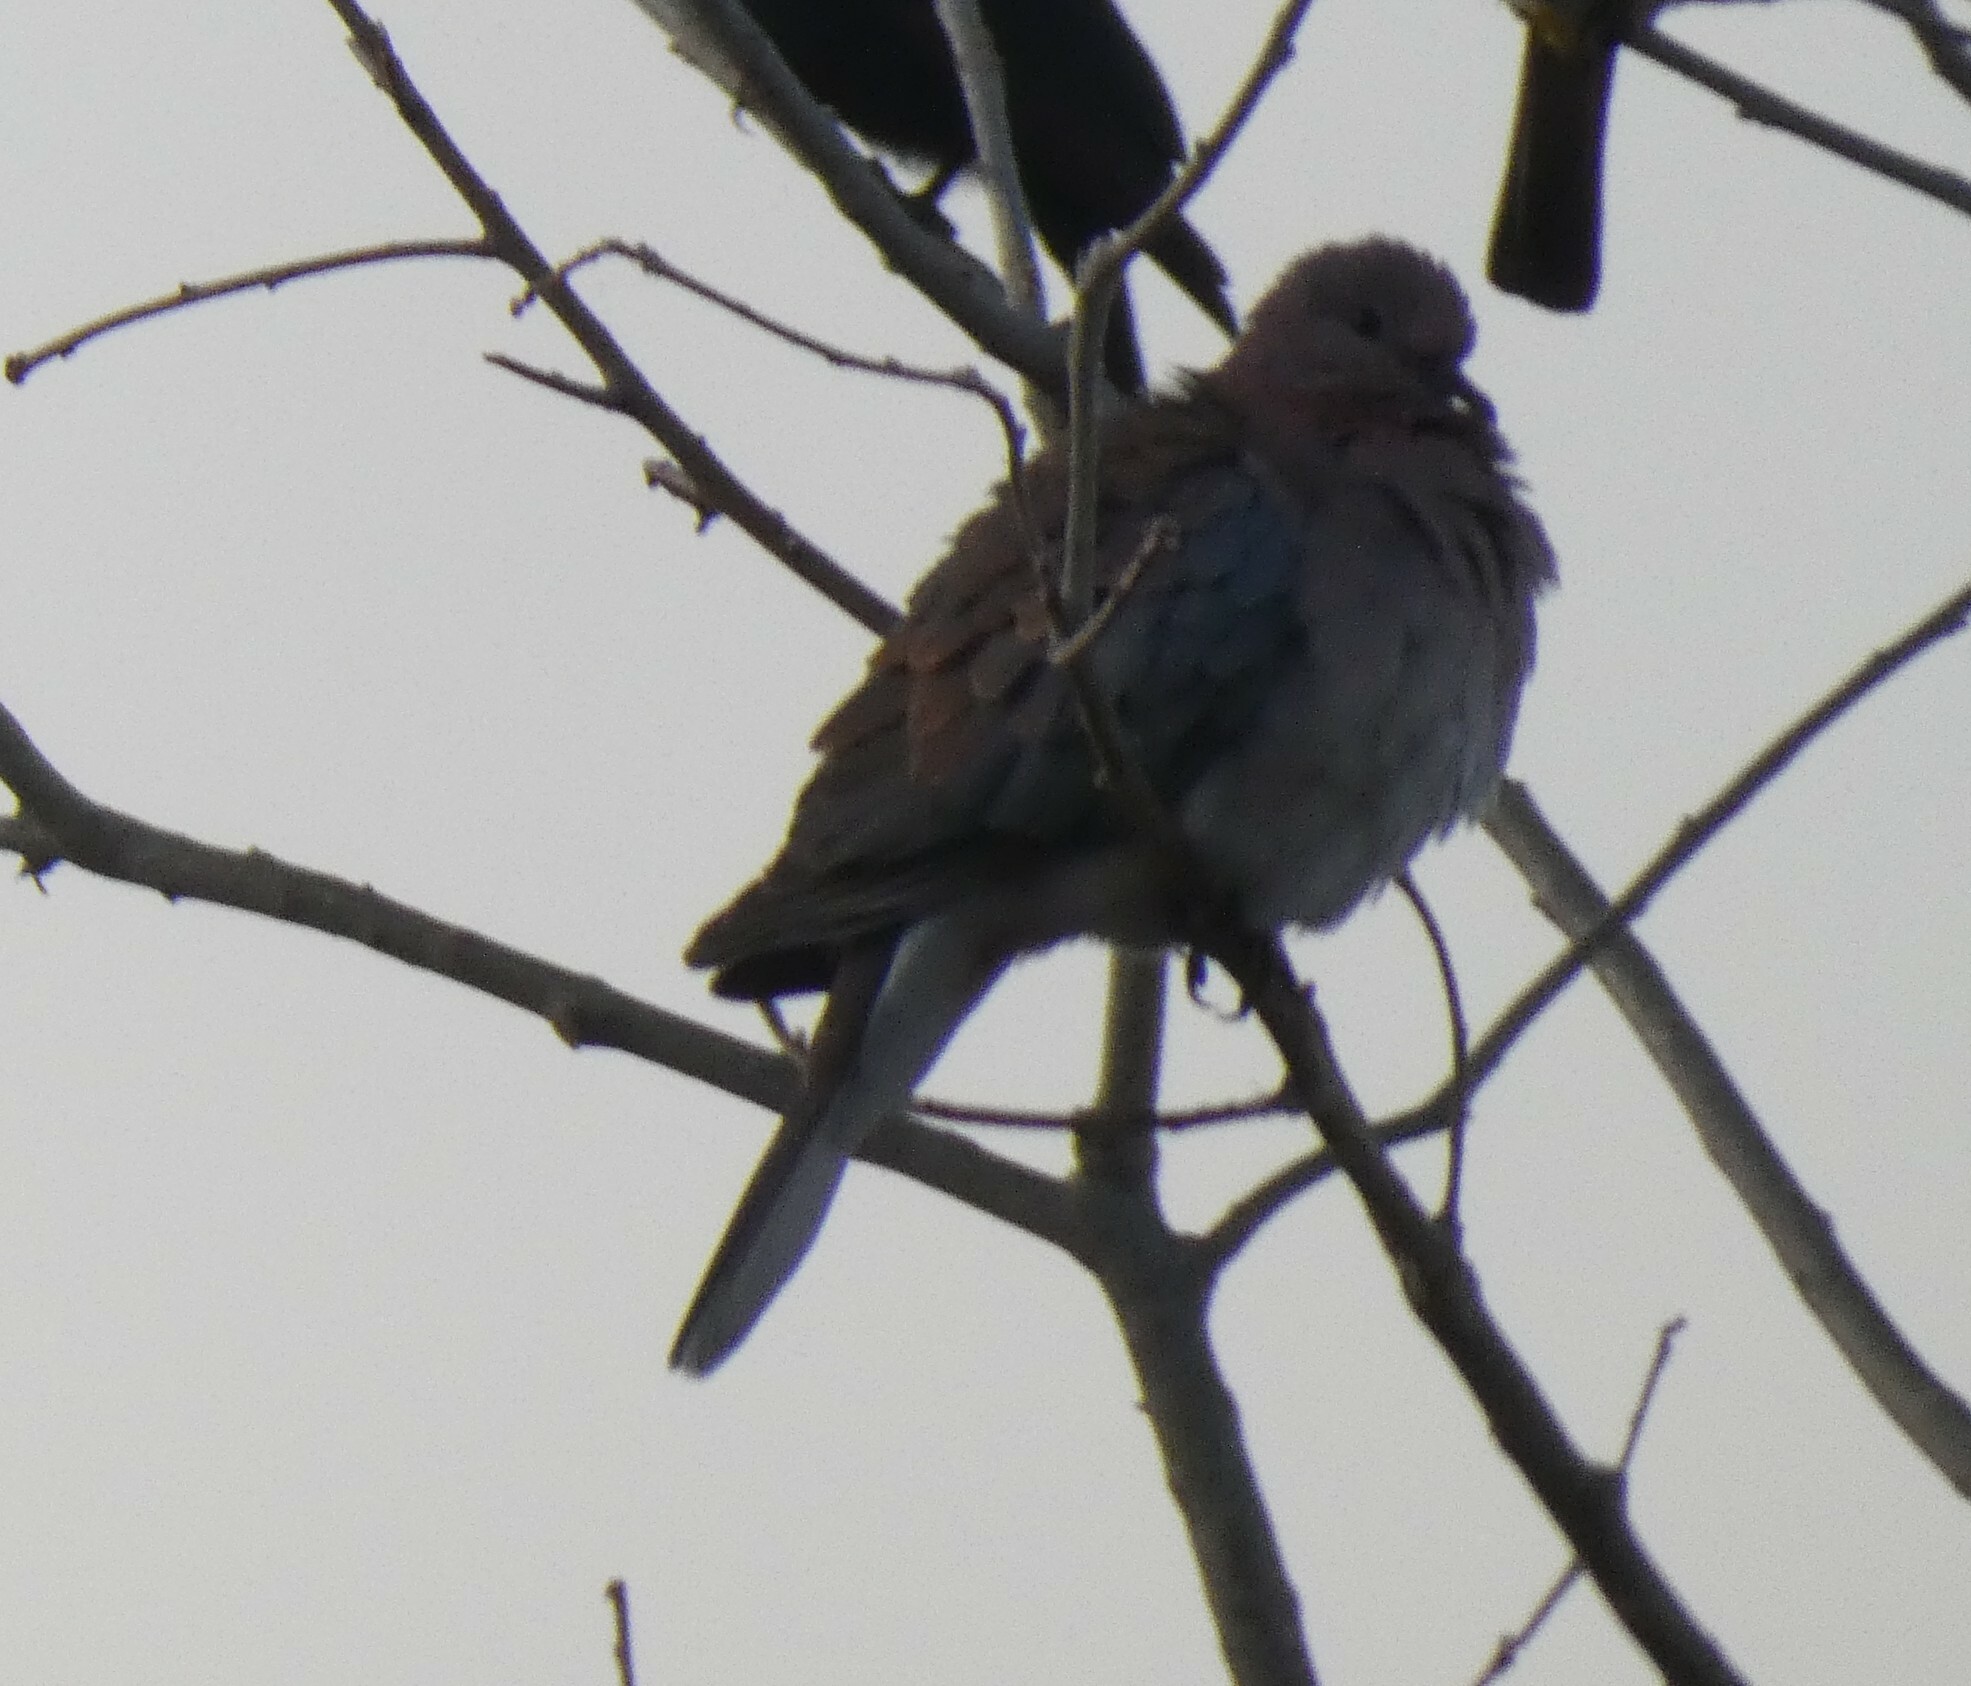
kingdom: Animalia
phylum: Chordata
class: Aves
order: Columbiformes
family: Columbidae
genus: Spilopelia
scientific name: Spilopelia senegalensis
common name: Laughing dove
